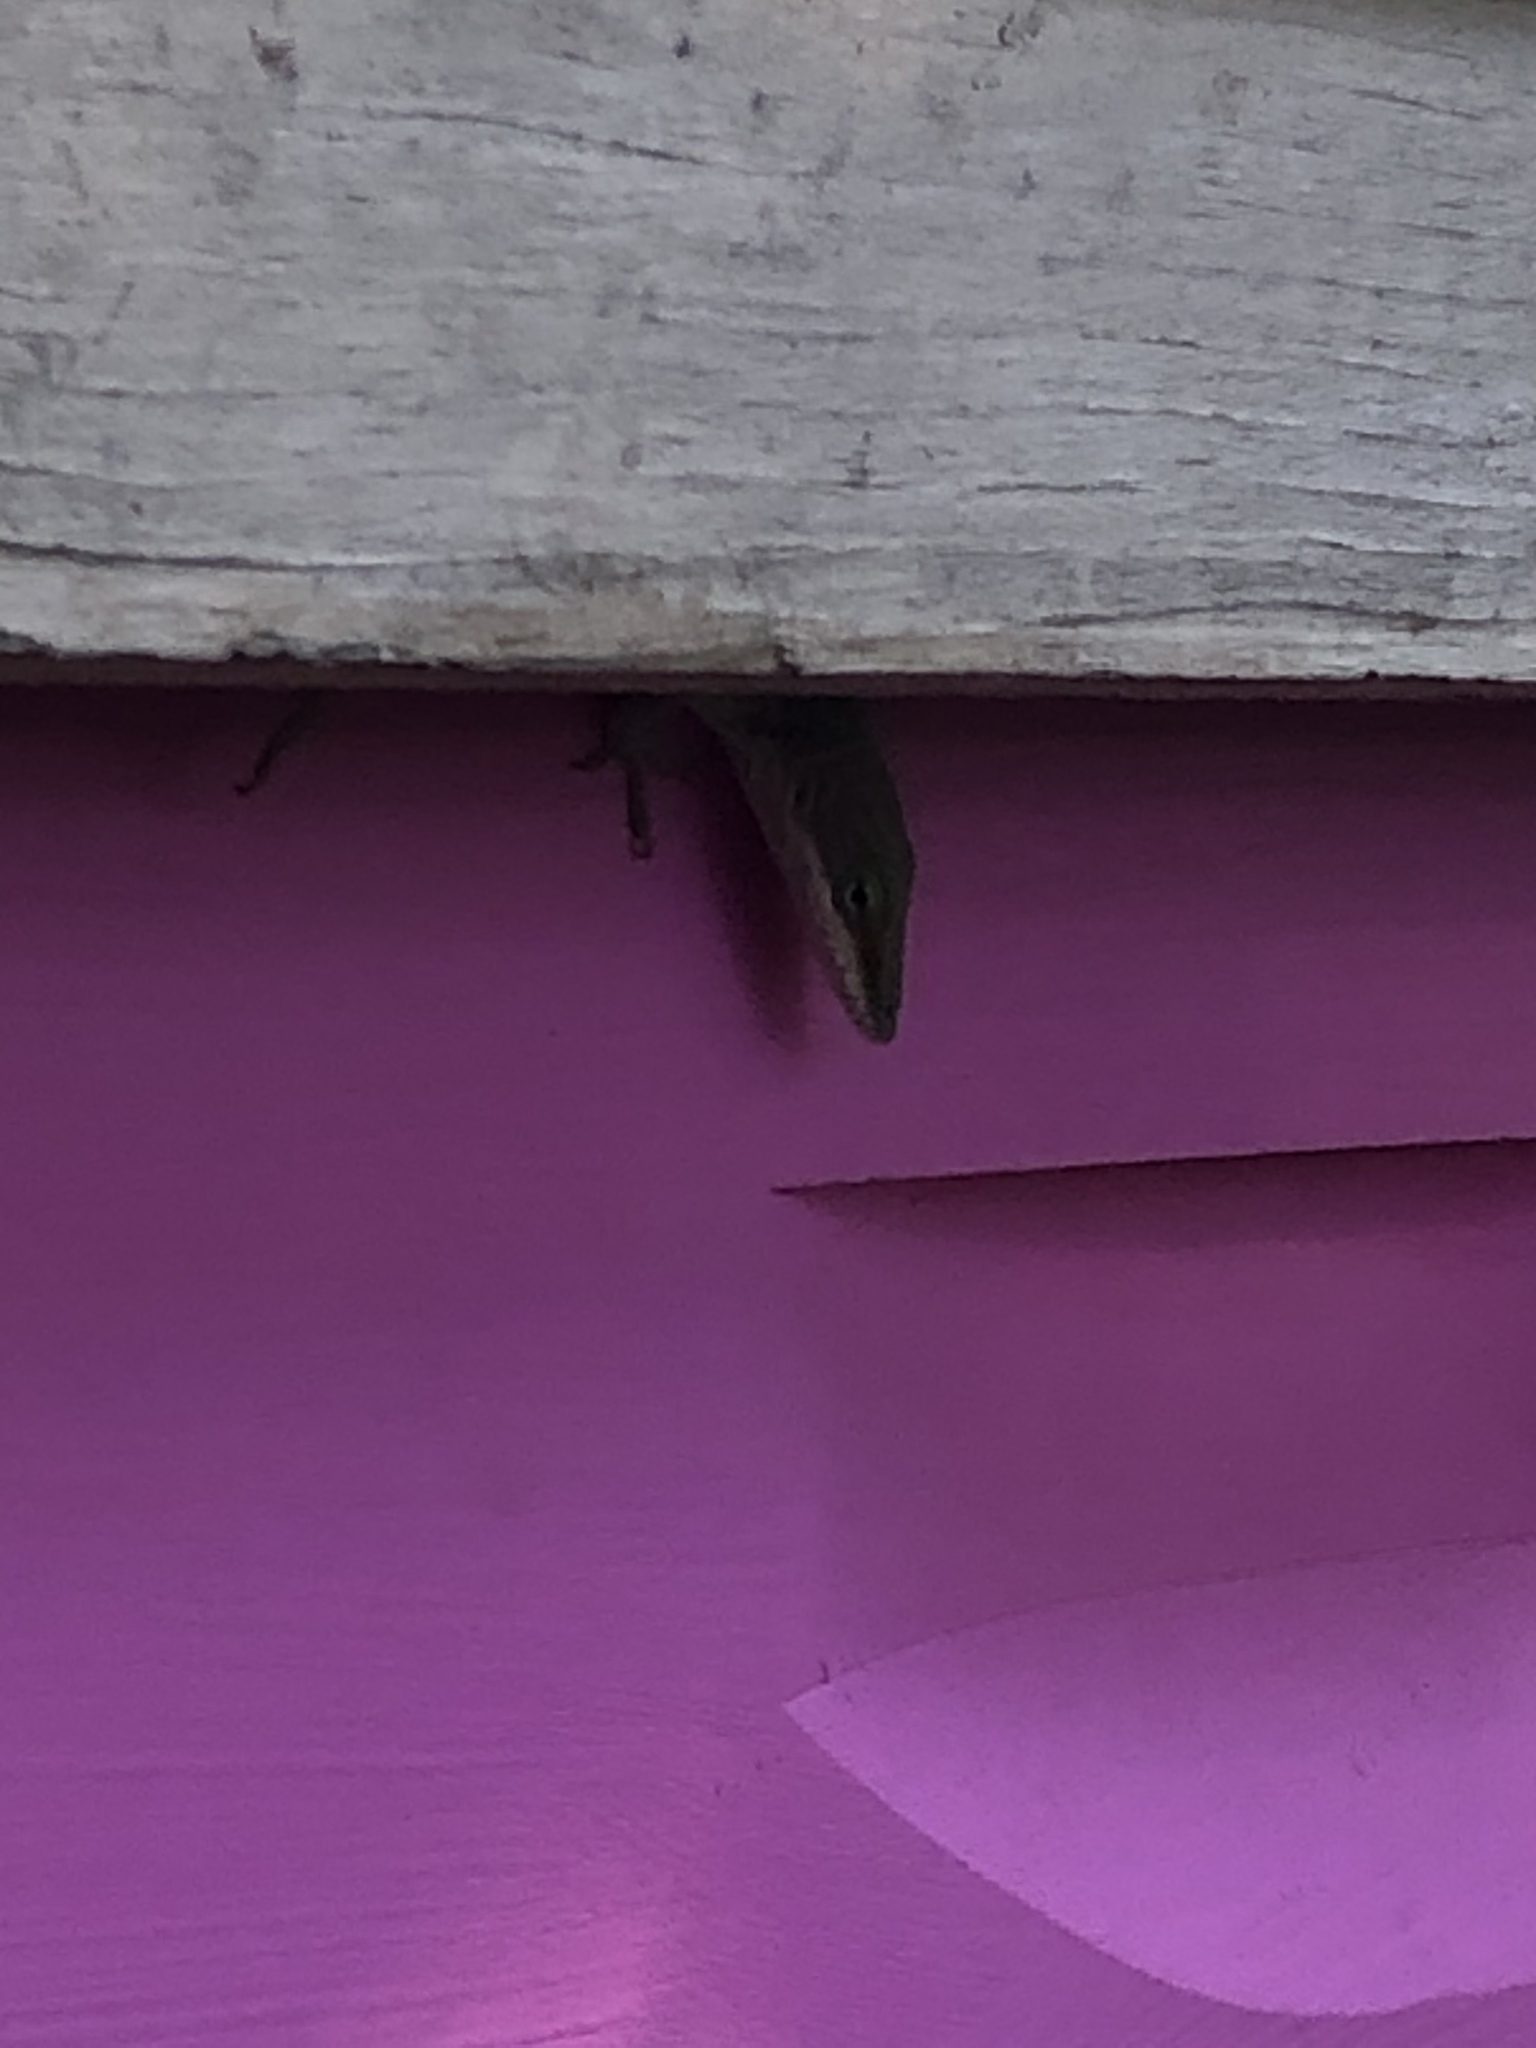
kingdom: Animalia
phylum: Chordata
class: Squamata
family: Dactyloidae
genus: Anolis
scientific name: Anolis carolinensis
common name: Green anole
